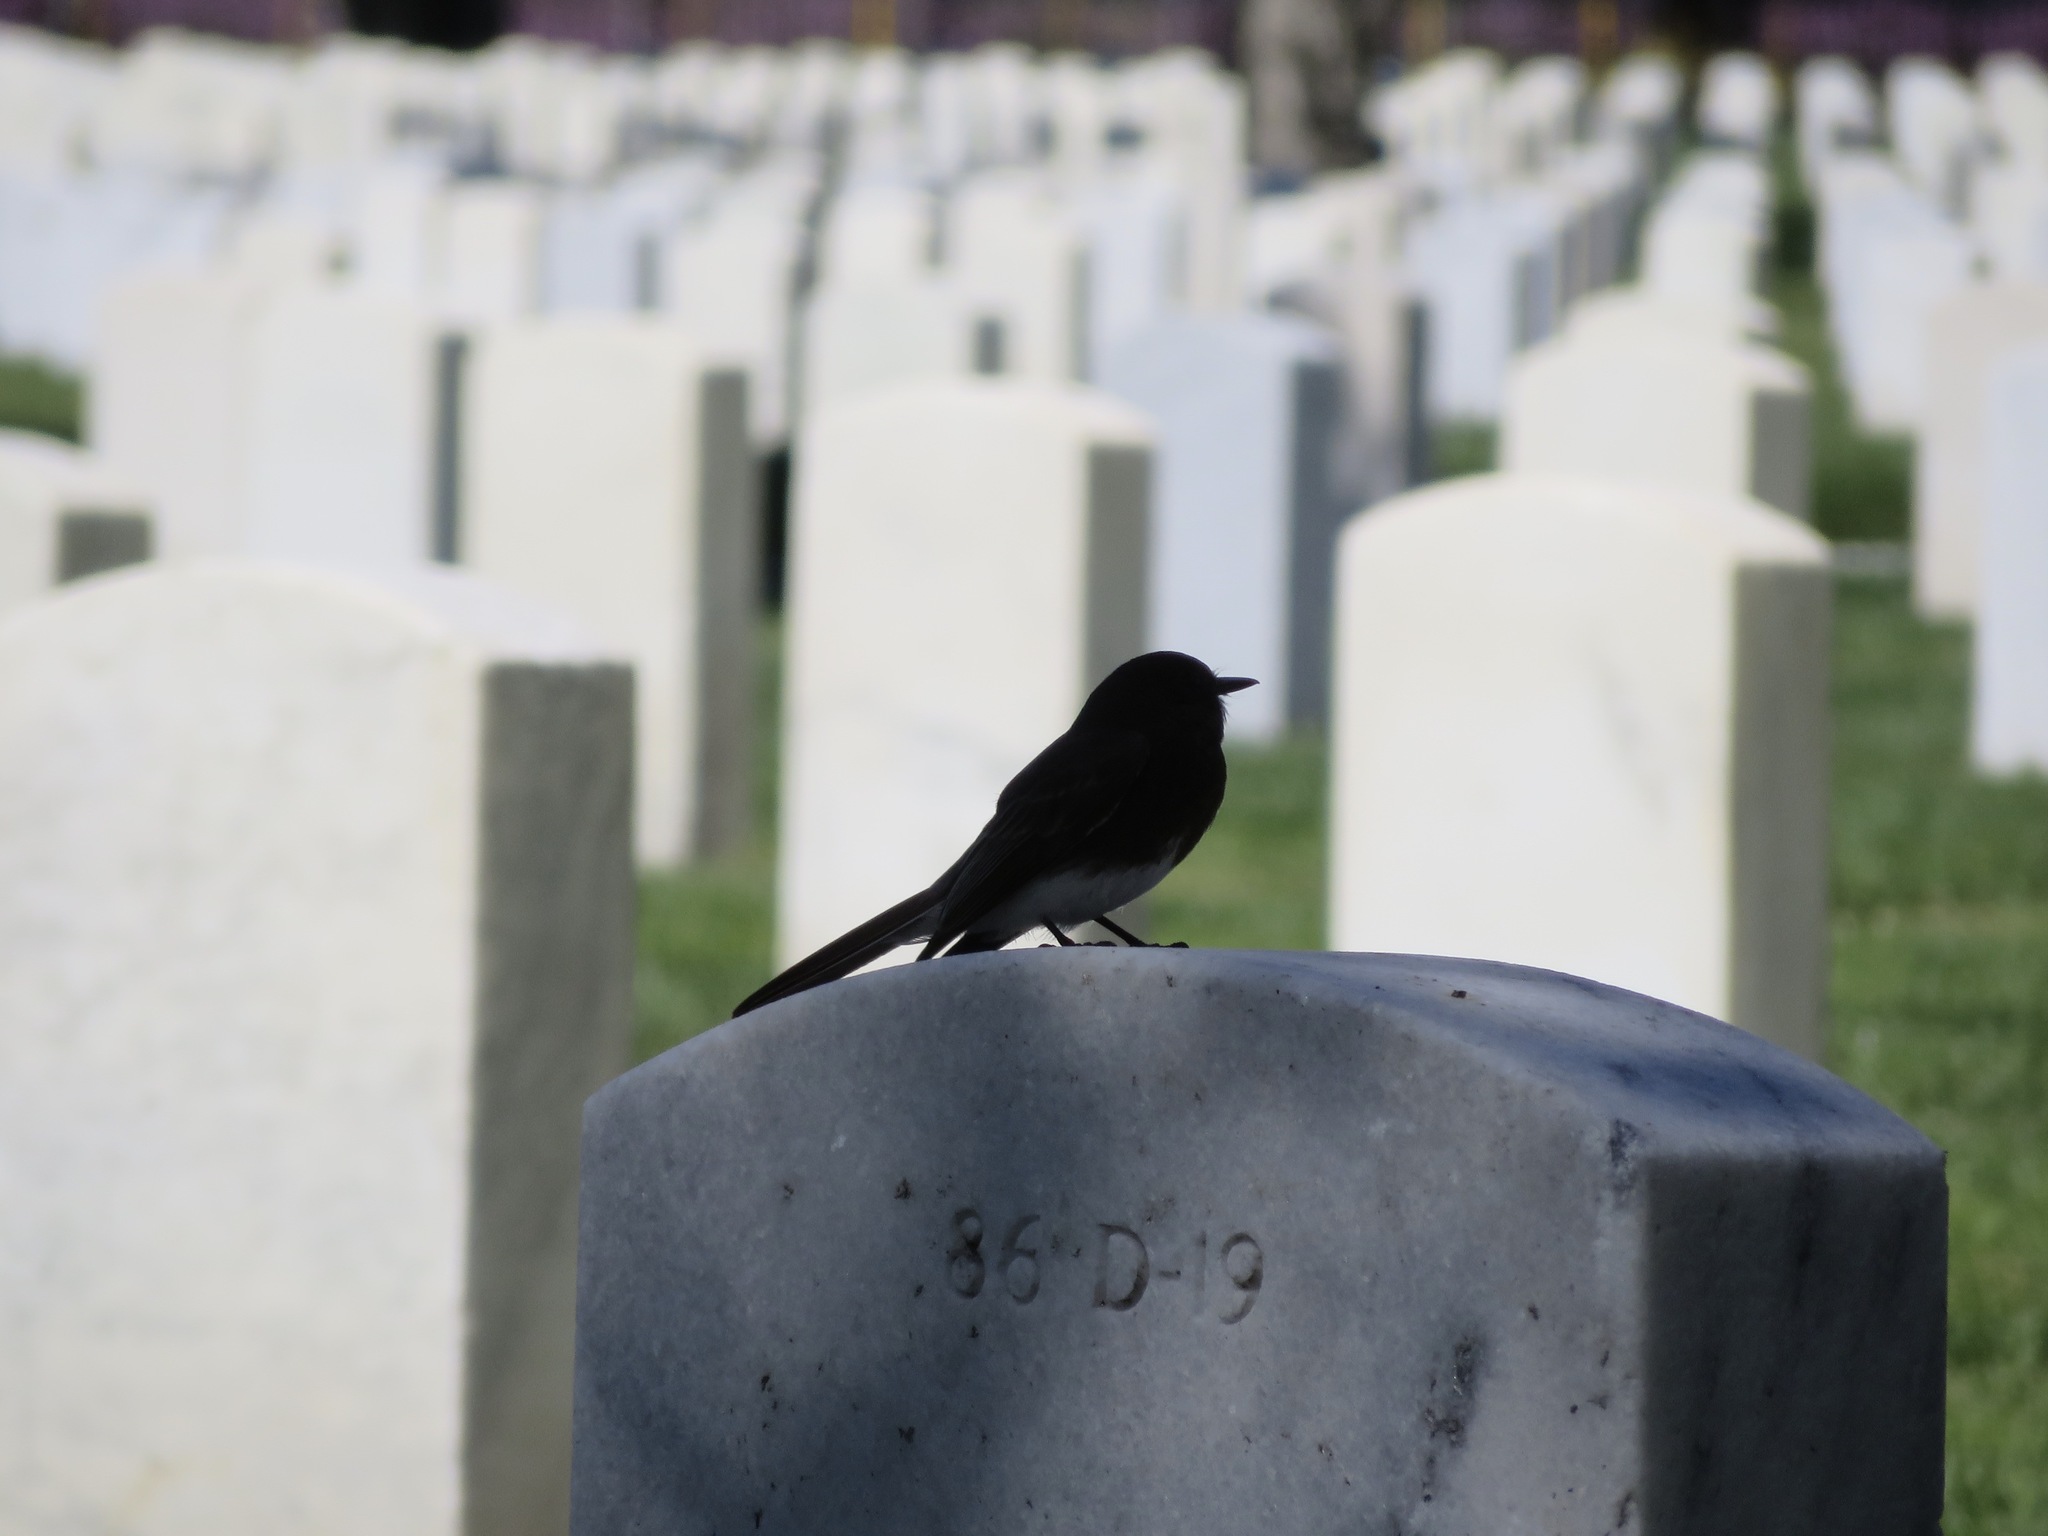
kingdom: Animalia
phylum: Chordata
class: Aves
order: Passeriformes
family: Tyrannidae
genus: Sayornis
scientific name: Sayornis nigricans
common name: Black phoebe
